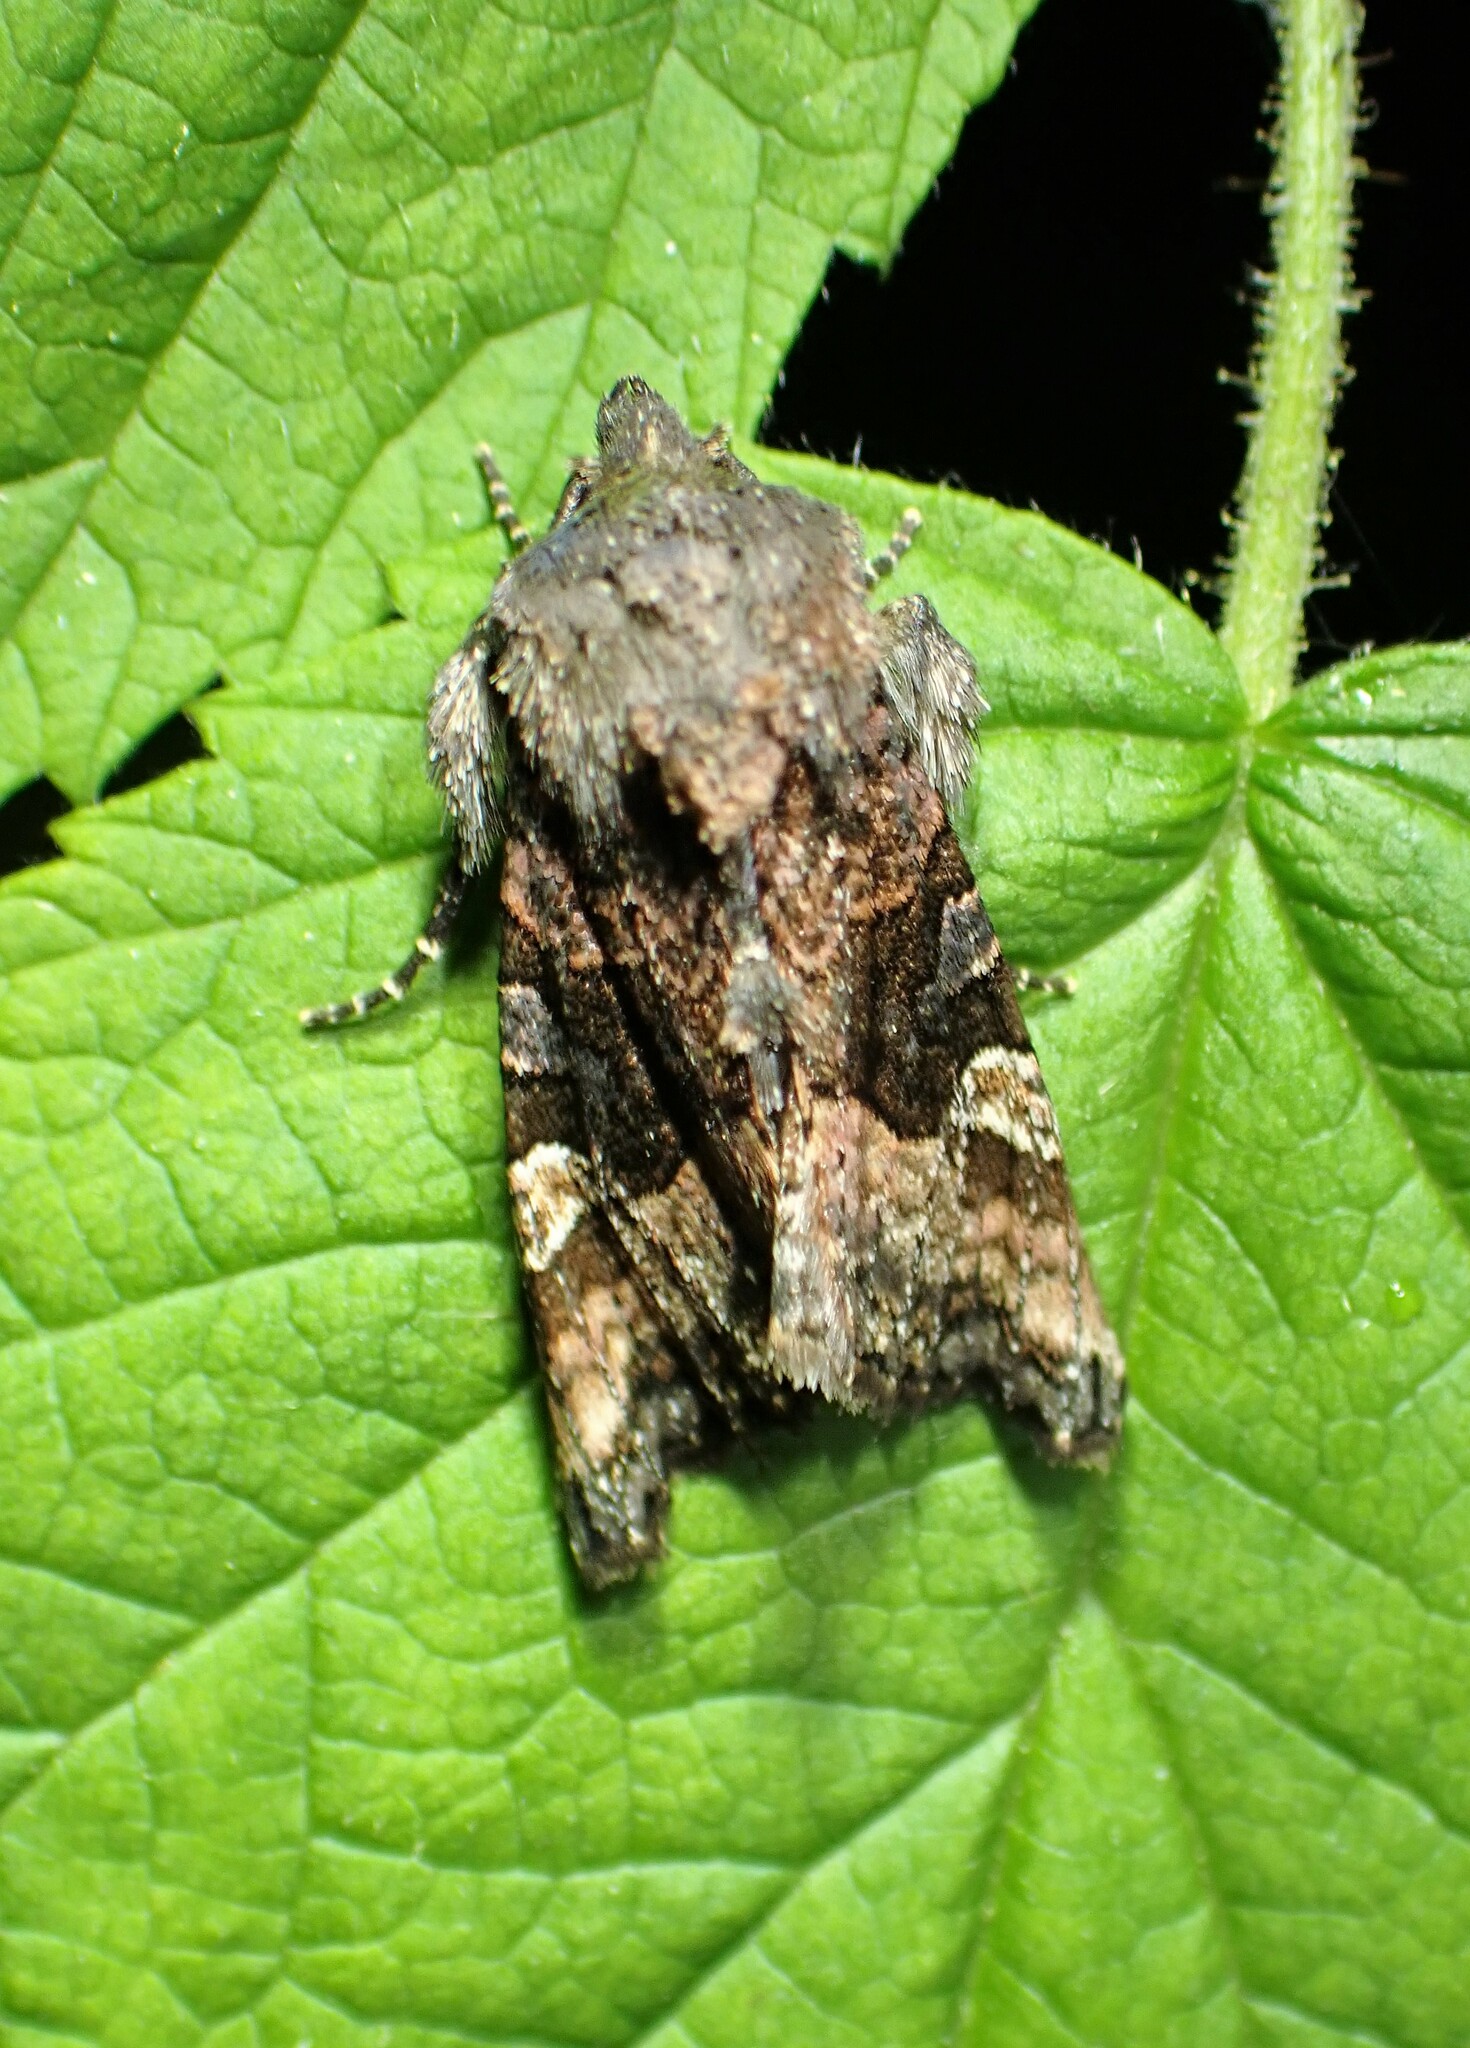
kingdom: Animalia
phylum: Arthropoda
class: Insecta
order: Lepidoptera
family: Noctuidae
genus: Euplexia
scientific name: Euplexia benesimilis
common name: American angle shades
